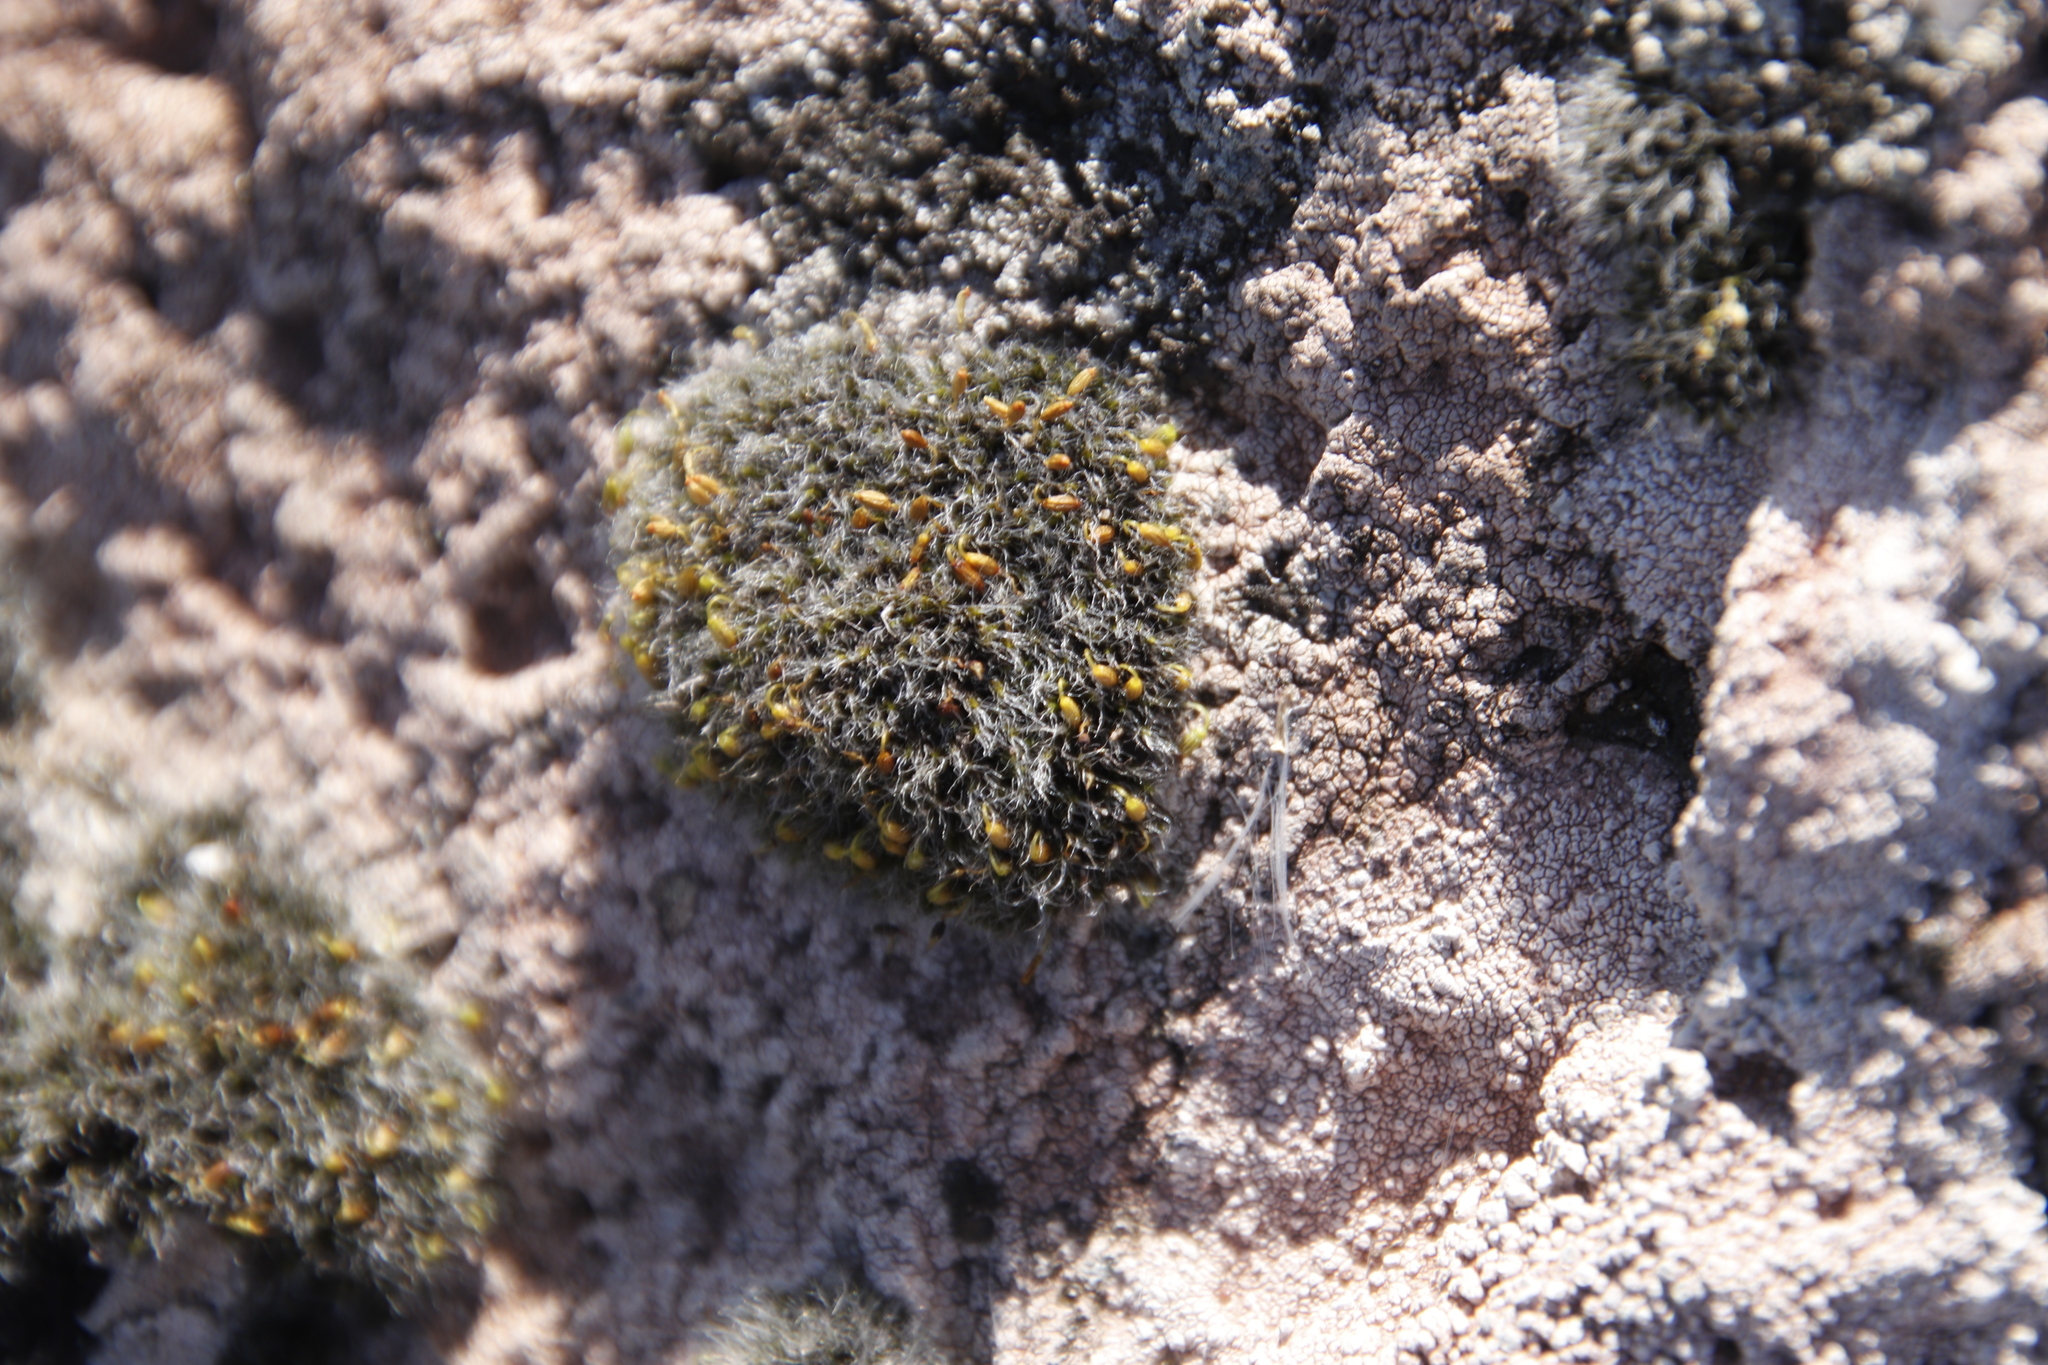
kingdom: Plantae
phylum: Bryophyta
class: Bryopsida
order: Grimmiales
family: Grimmiaceae
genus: Grimmia
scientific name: Grimmia pulvinata
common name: Grey-cushioned grimmia
